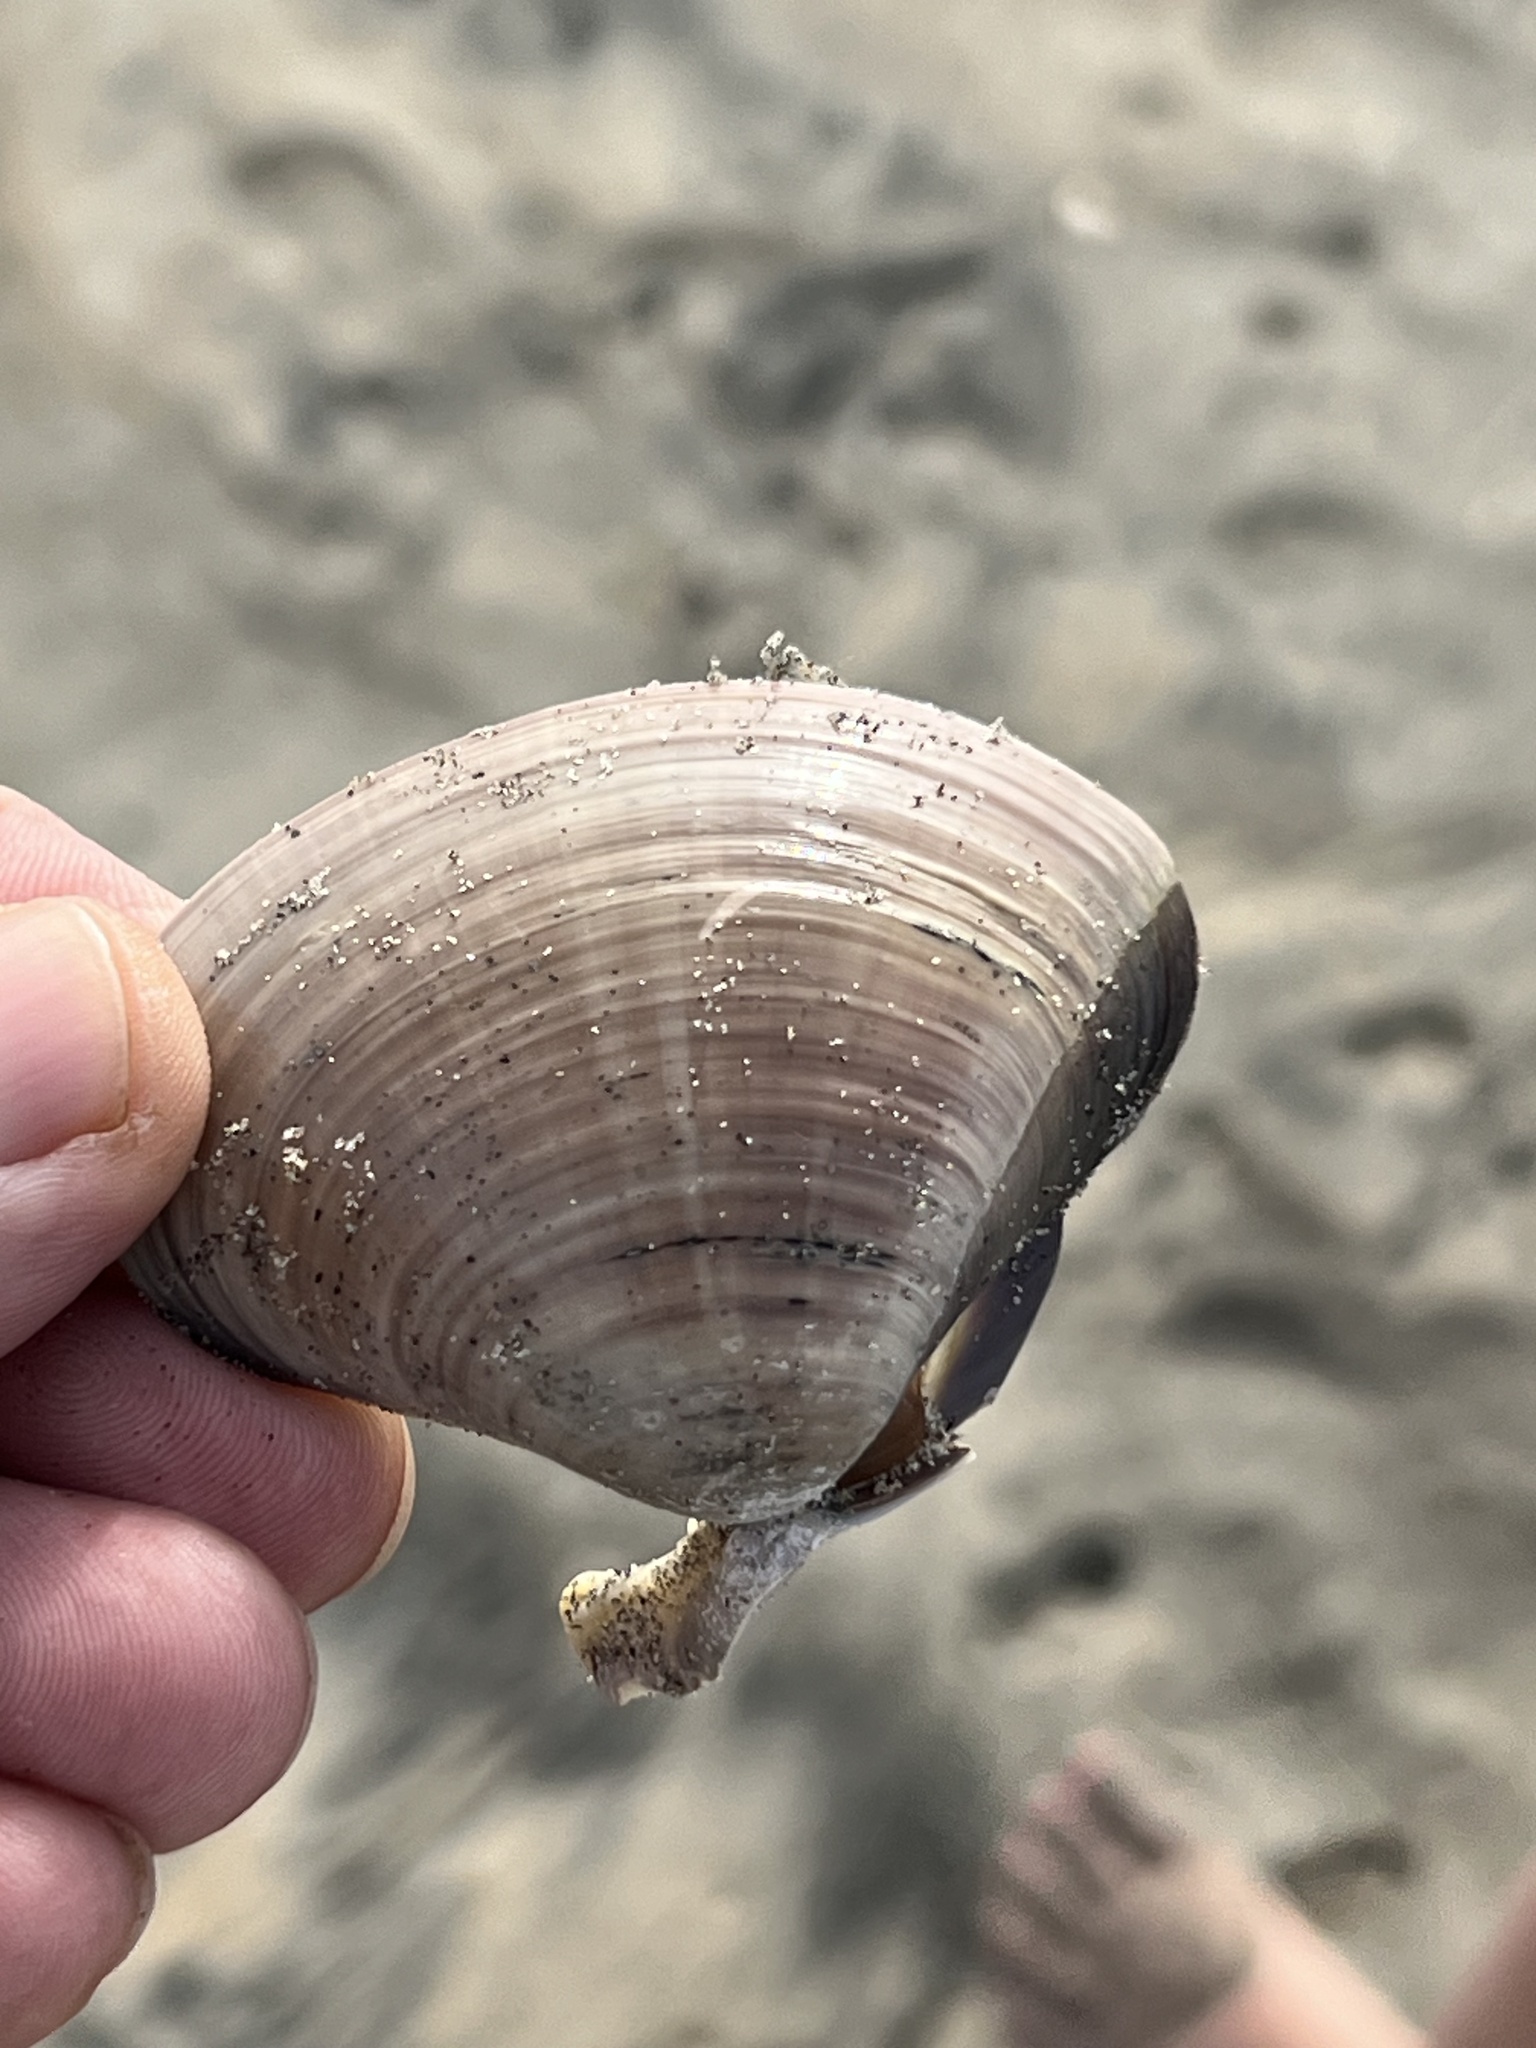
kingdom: Animalia
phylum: Mollusca
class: Bivalvia
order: Venerida
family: Veneridae
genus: Tivela
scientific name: Tivela stultorum
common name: Pismo clam
